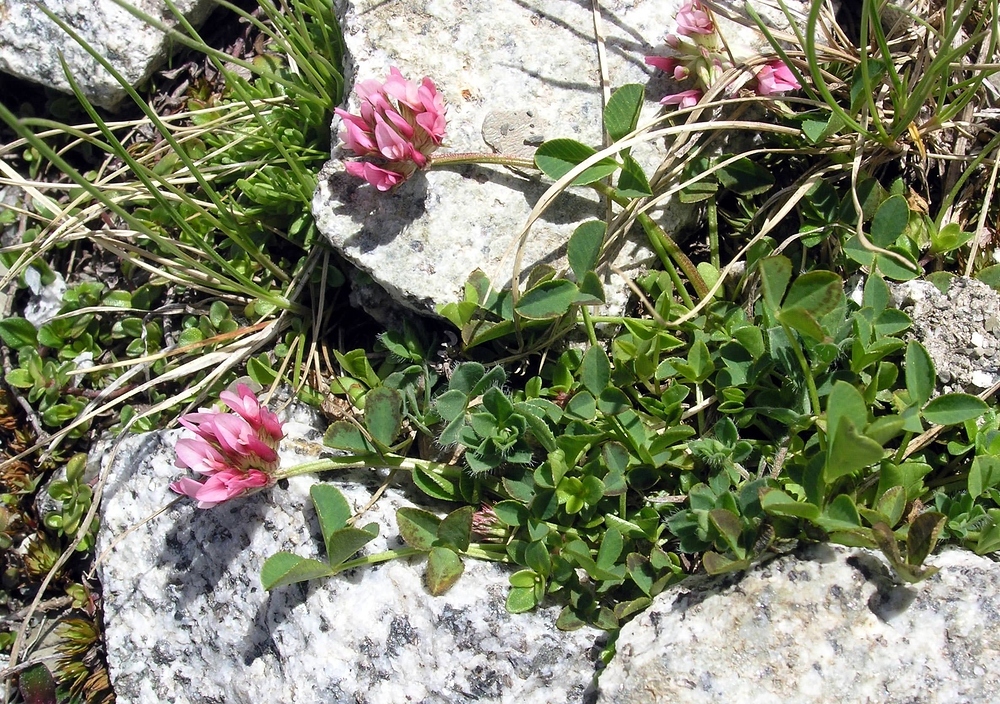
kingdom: Plantae
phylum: Tracheophyta
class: Magnoliopsida
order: Fabales
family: Fabaceae
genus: Trifolium
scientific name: Trifolium thalii
